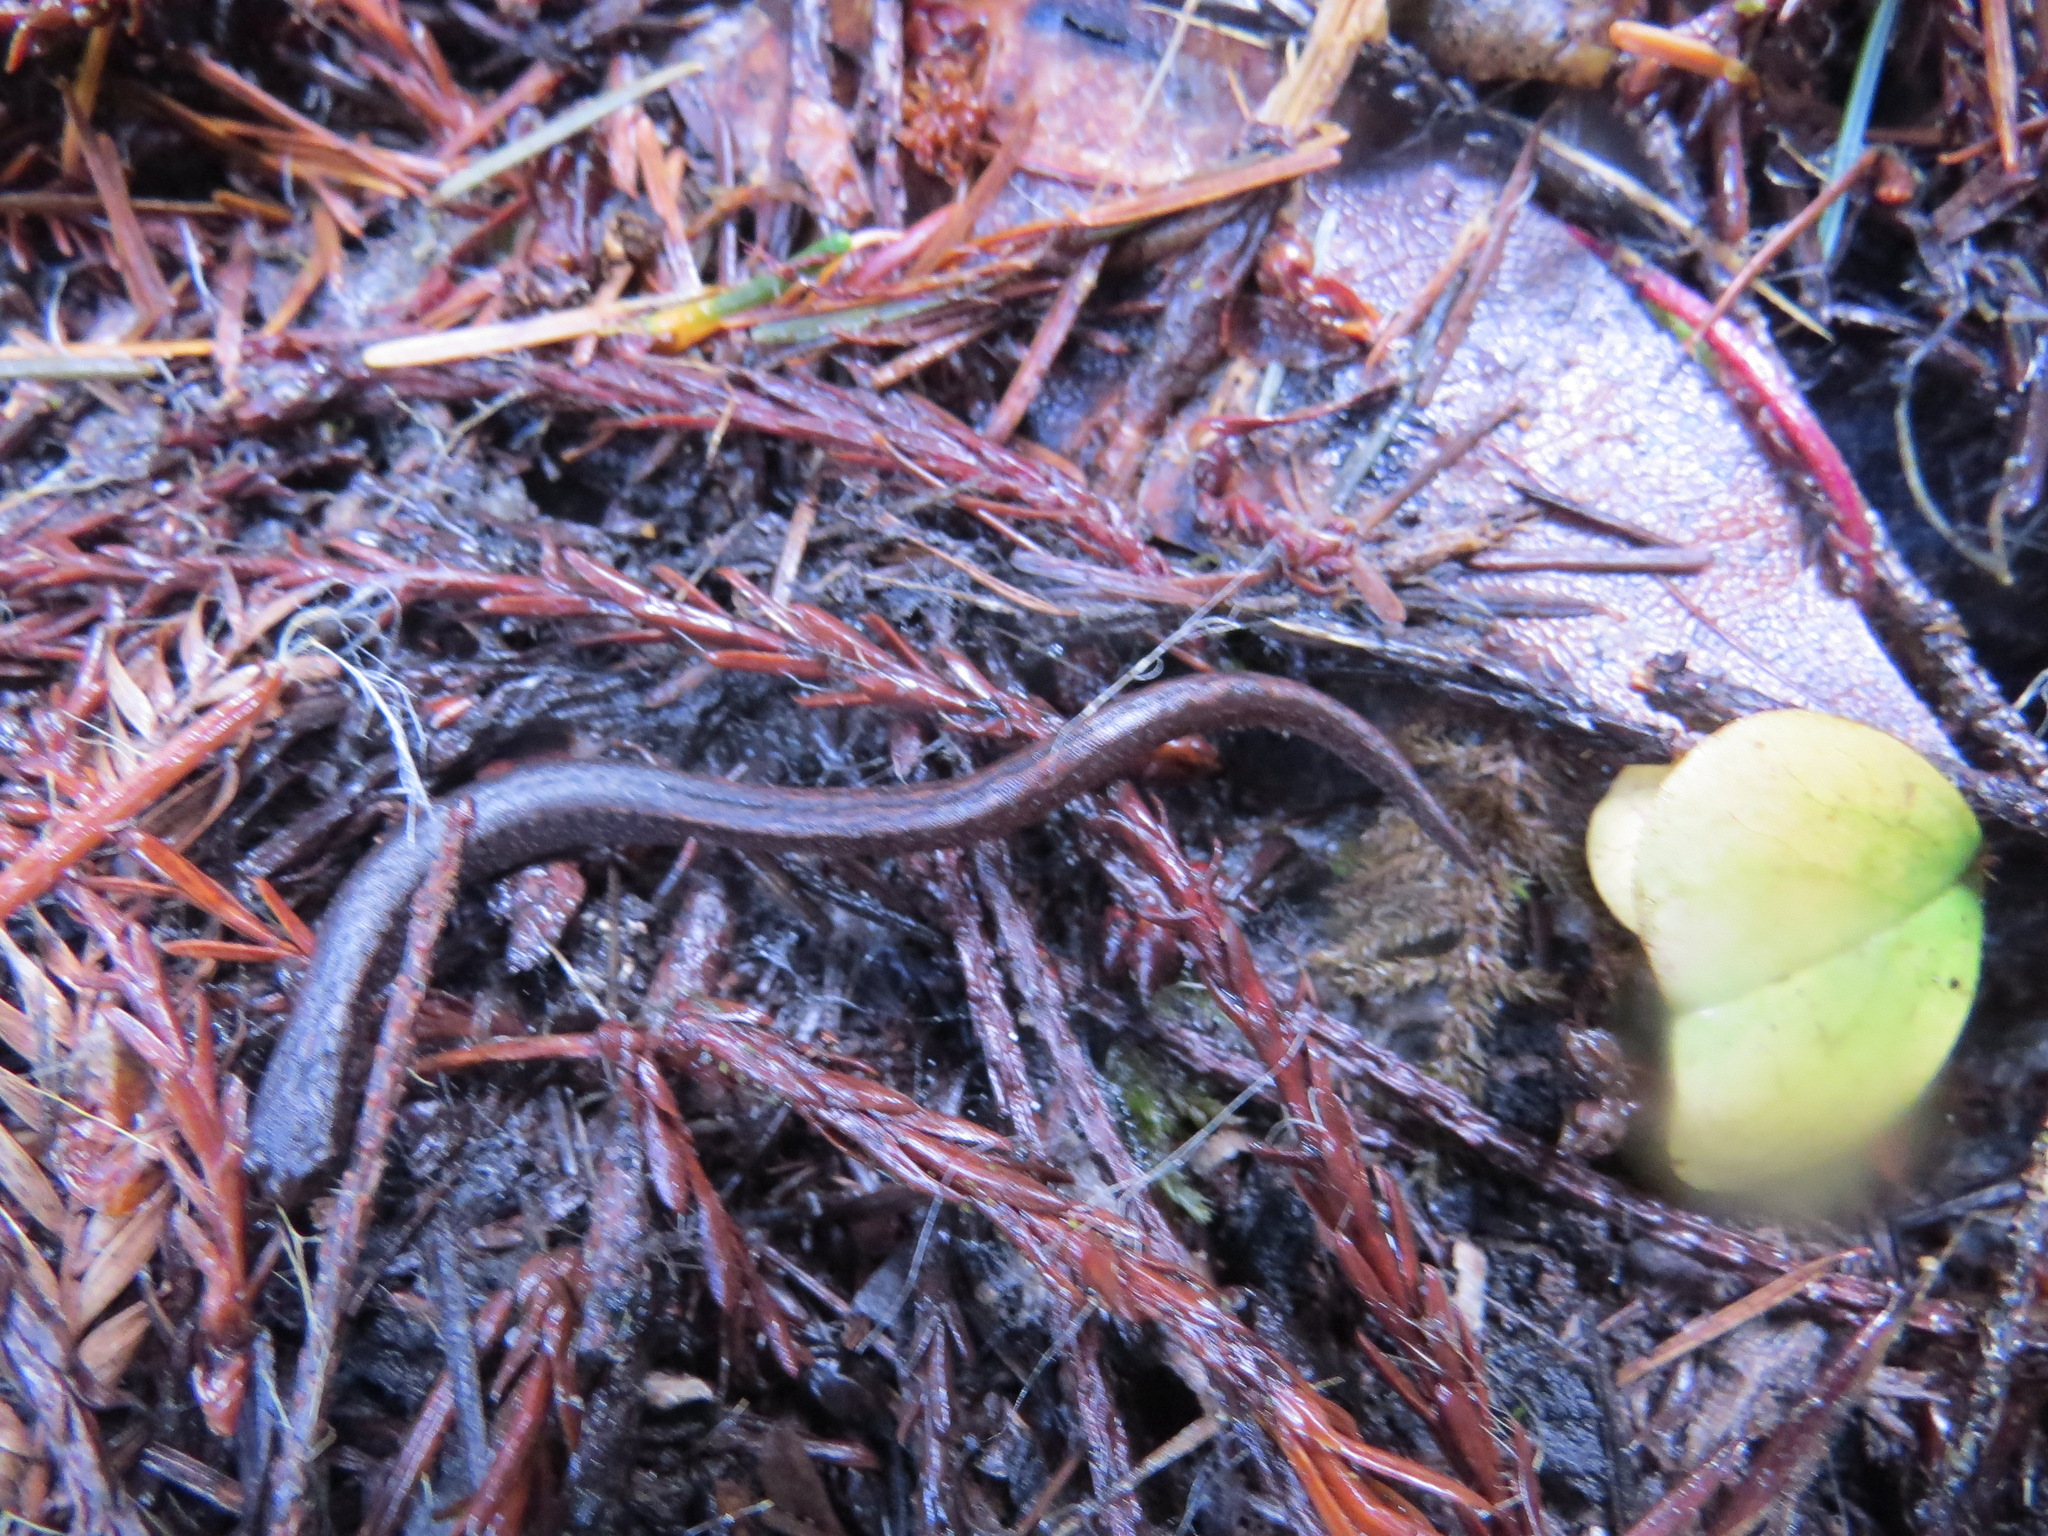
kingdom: Animalia
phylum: Chordata
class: Amphibia
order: Caudata
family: Plethodontidae
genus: Batrachoseps
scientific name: Batrachoseps attenuatus
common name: California slender salamander
